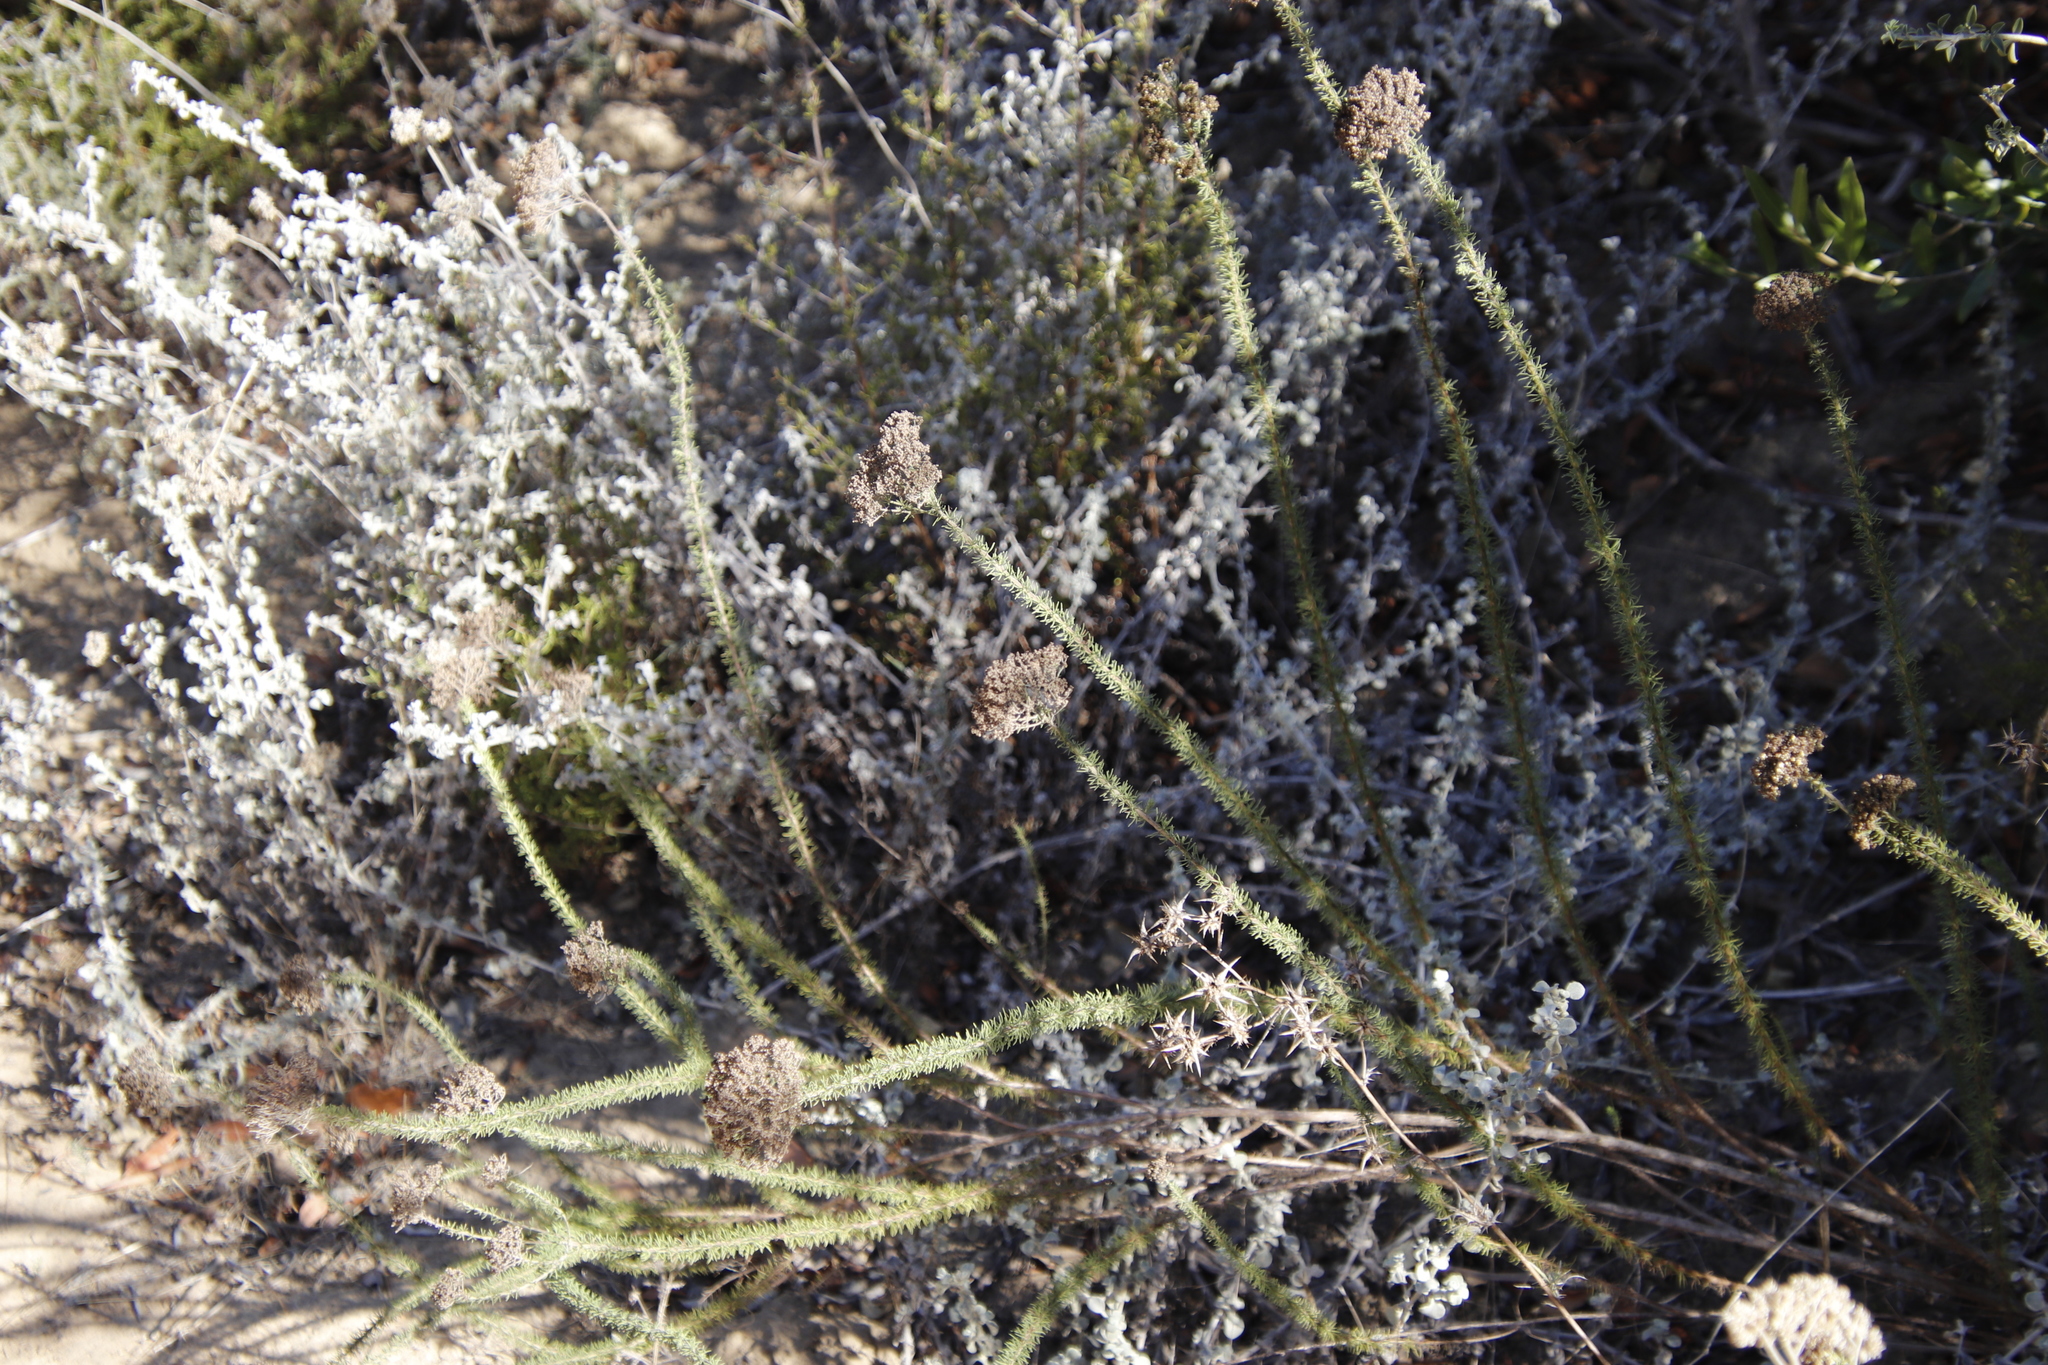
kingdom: Plantae
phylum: Tracheophyta
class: Magnoliopsida
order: Lamiales
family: Scrophulariaceae
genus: Selago
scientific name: Selago corymbosa
